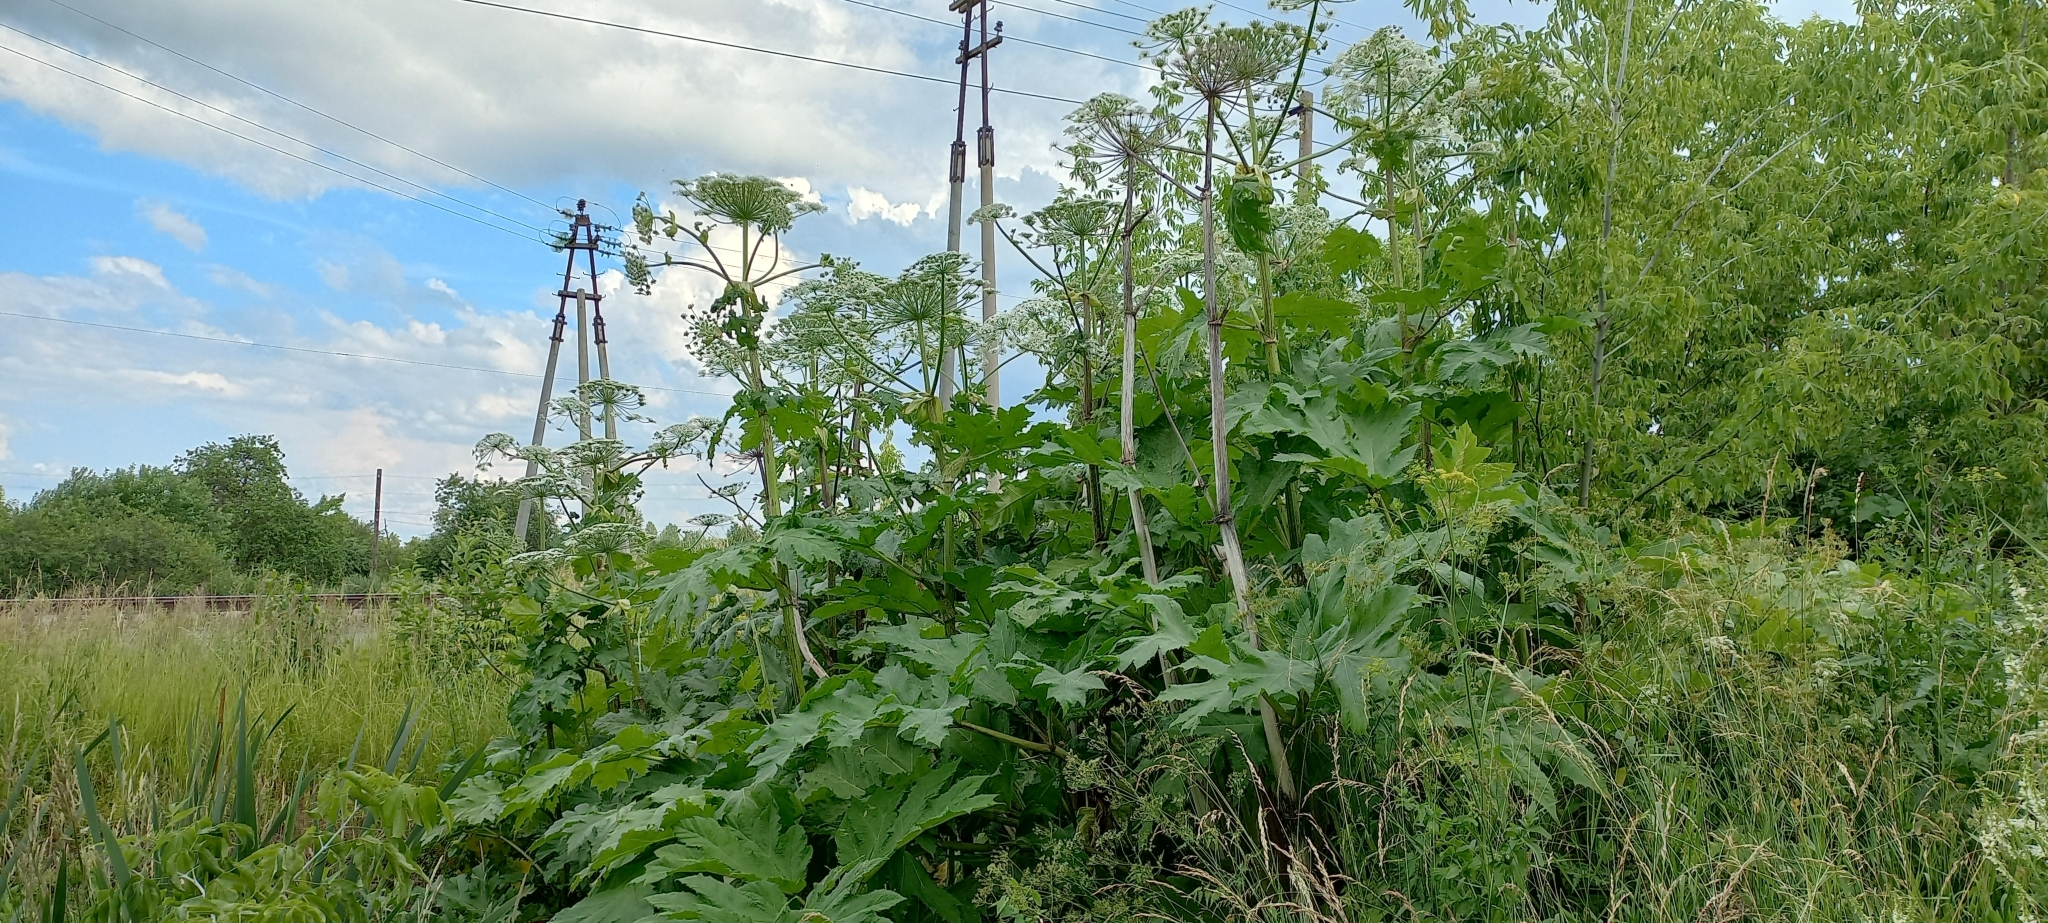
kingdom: Plantae
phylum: Tracheophyta
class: Magnoliopsida
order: Apiales
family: Apiaceae
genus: Heracleum
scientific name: Heracleum sosnowskyi
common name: Sosnowsky's hogweed
